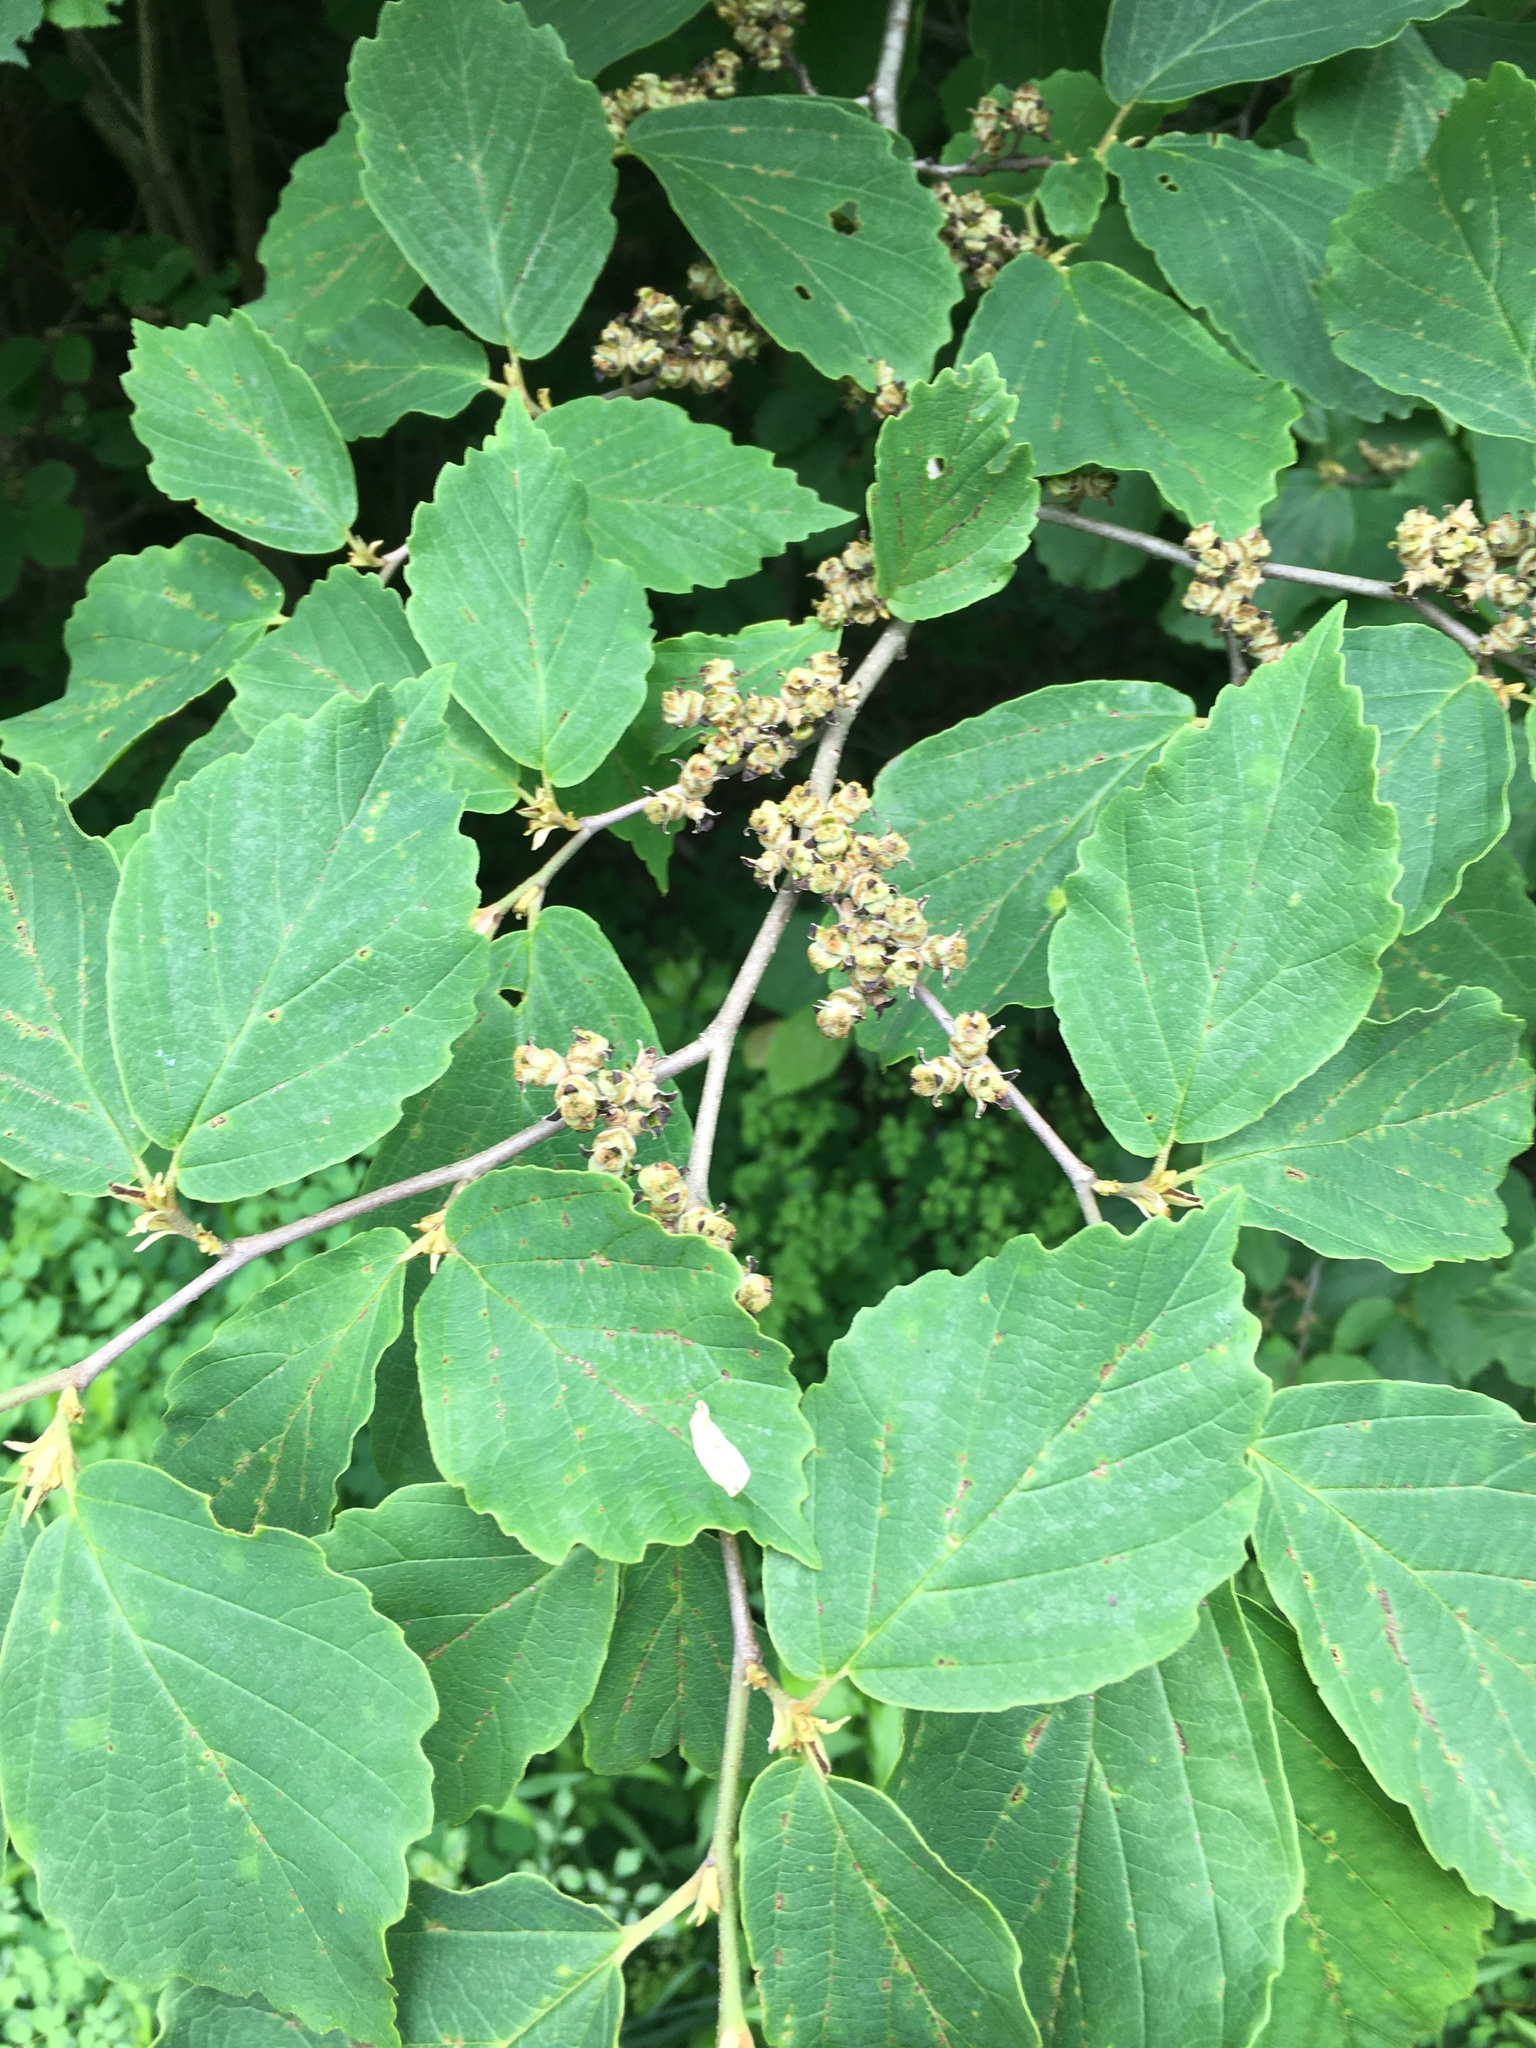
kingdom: Plantae
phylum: Tracheophyta
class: Magnoliopsida
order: Saxifragales
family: Hamamelidaceae
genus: Hamamelis
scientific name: Hamamelis virginiana
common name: Witch-hazel
